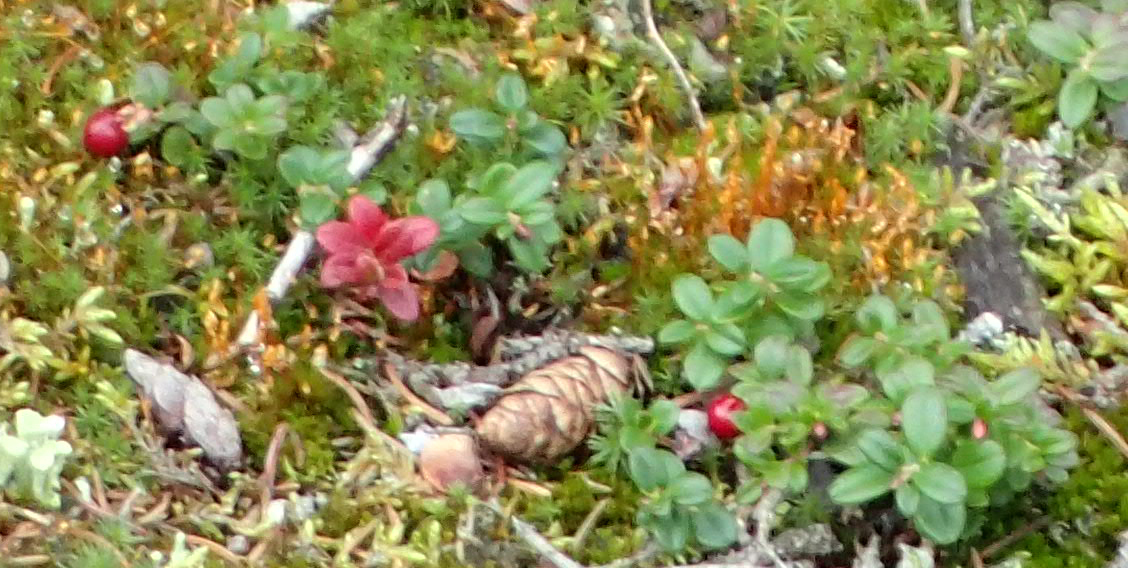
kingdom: Plantae
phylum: Tracheophyta
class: Magnoliopsida
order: Ericales
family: Ericaceae
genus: Vaccinium
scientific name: Vaccinium vitis-idaea
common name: Cowberry
